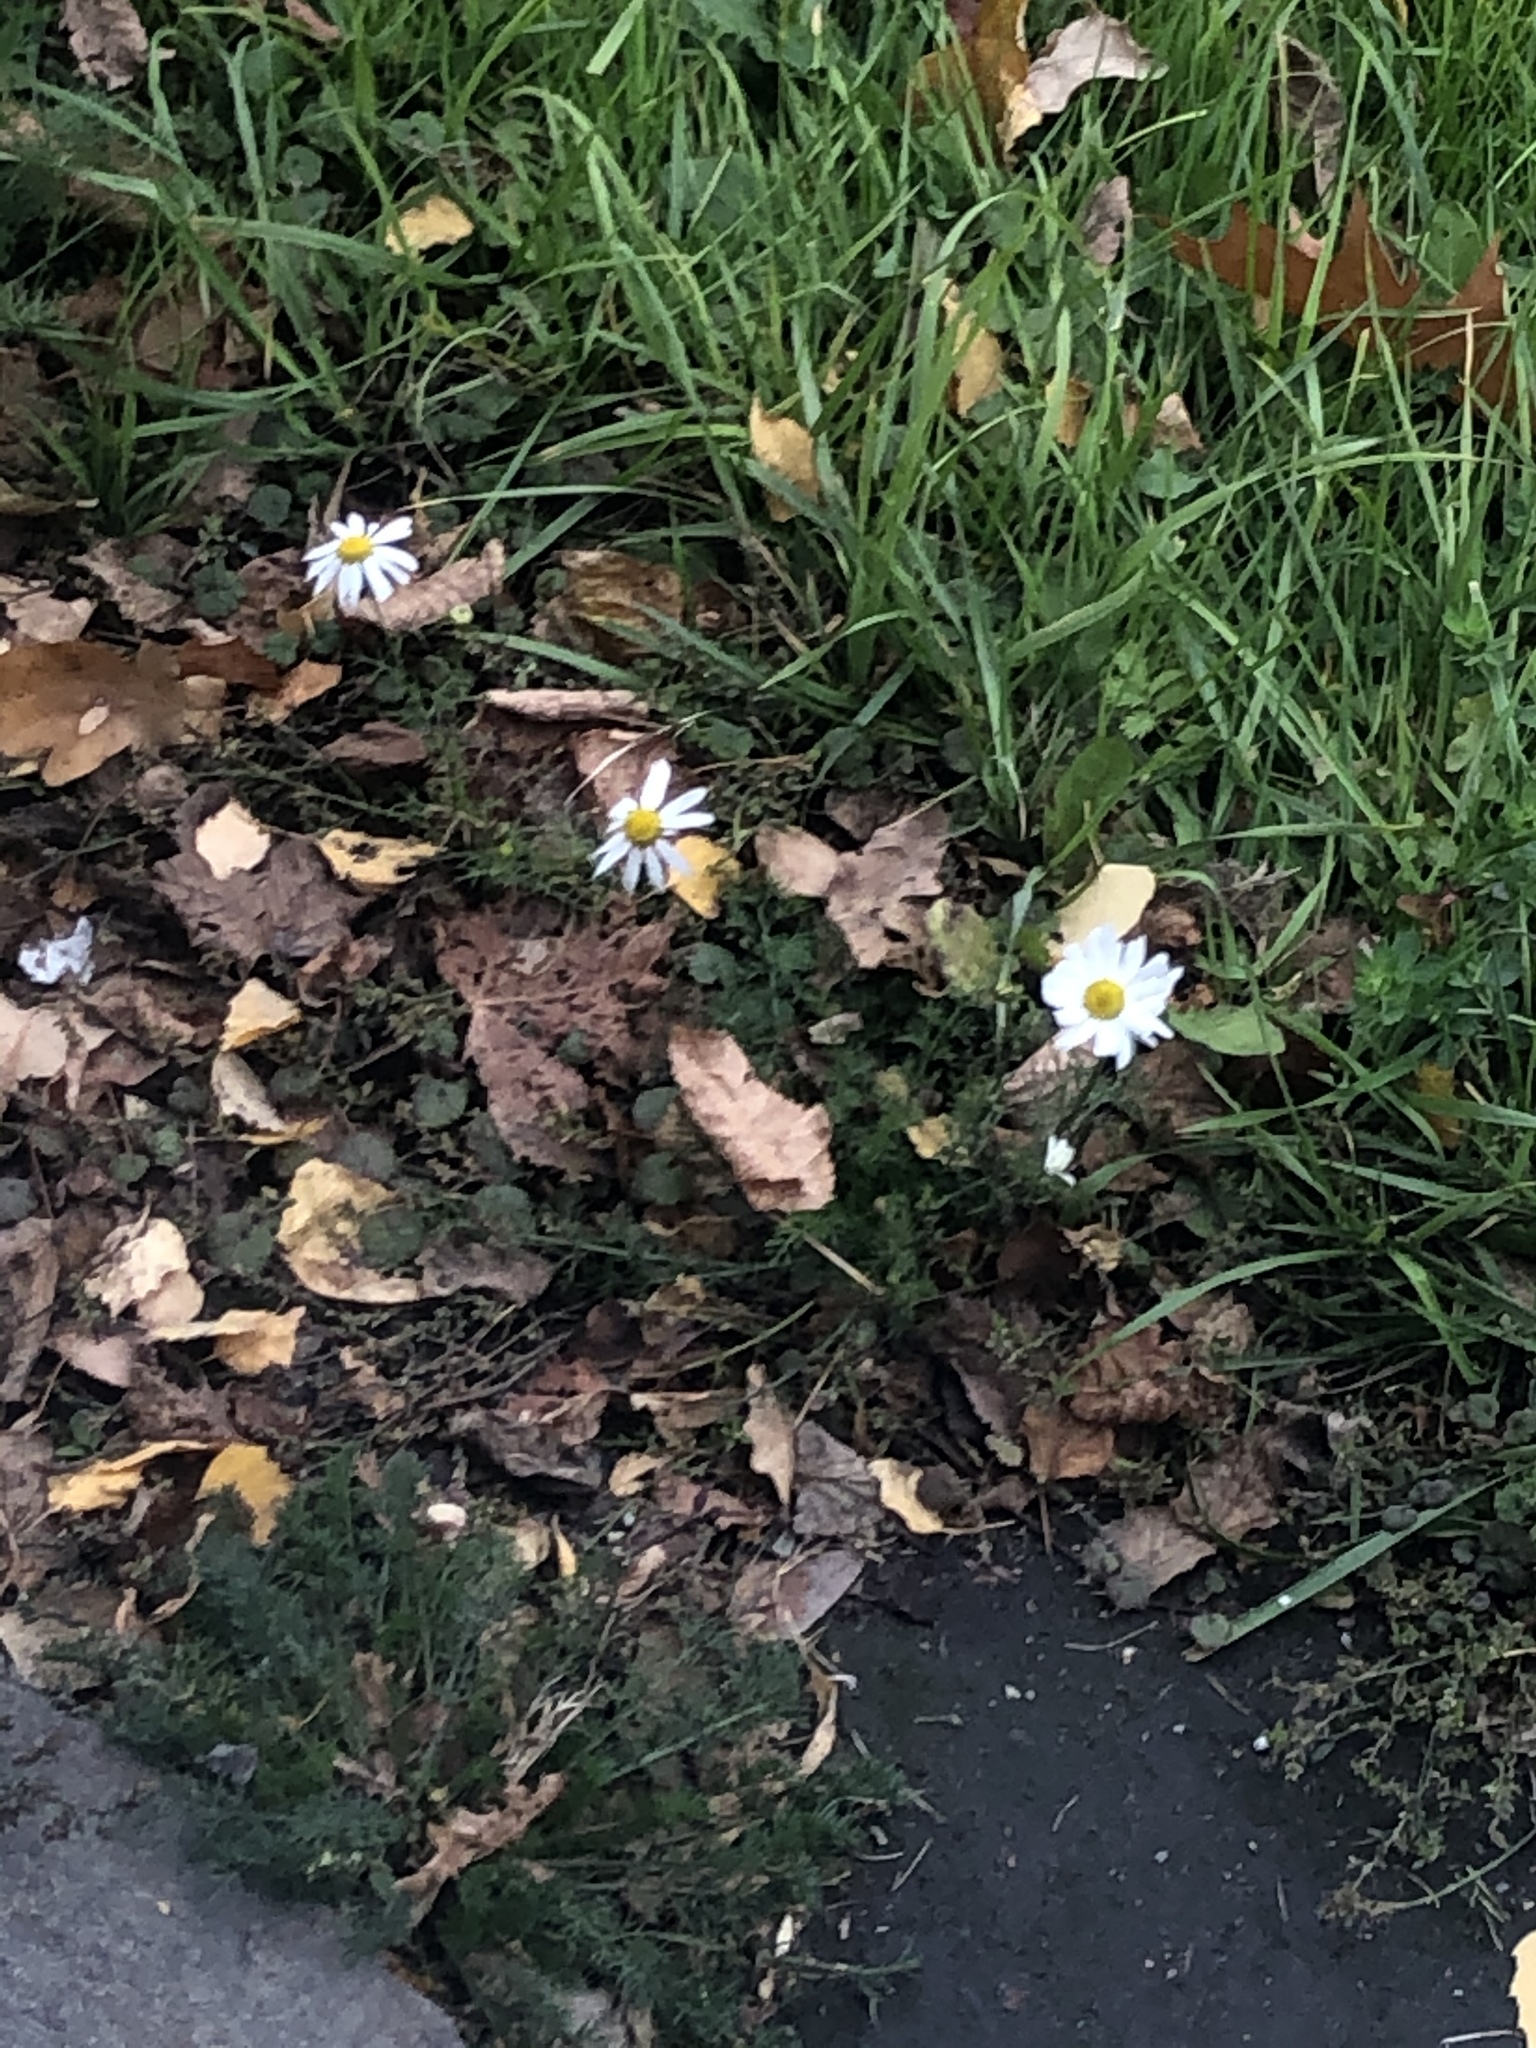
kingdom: Plantae
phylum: Tracheophyta
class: Magnoliopsida
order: Asterales
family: Asteraceae
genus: Tripleurospermum
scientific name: Tripleurospermum inodorum
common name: Scentless mayweed
